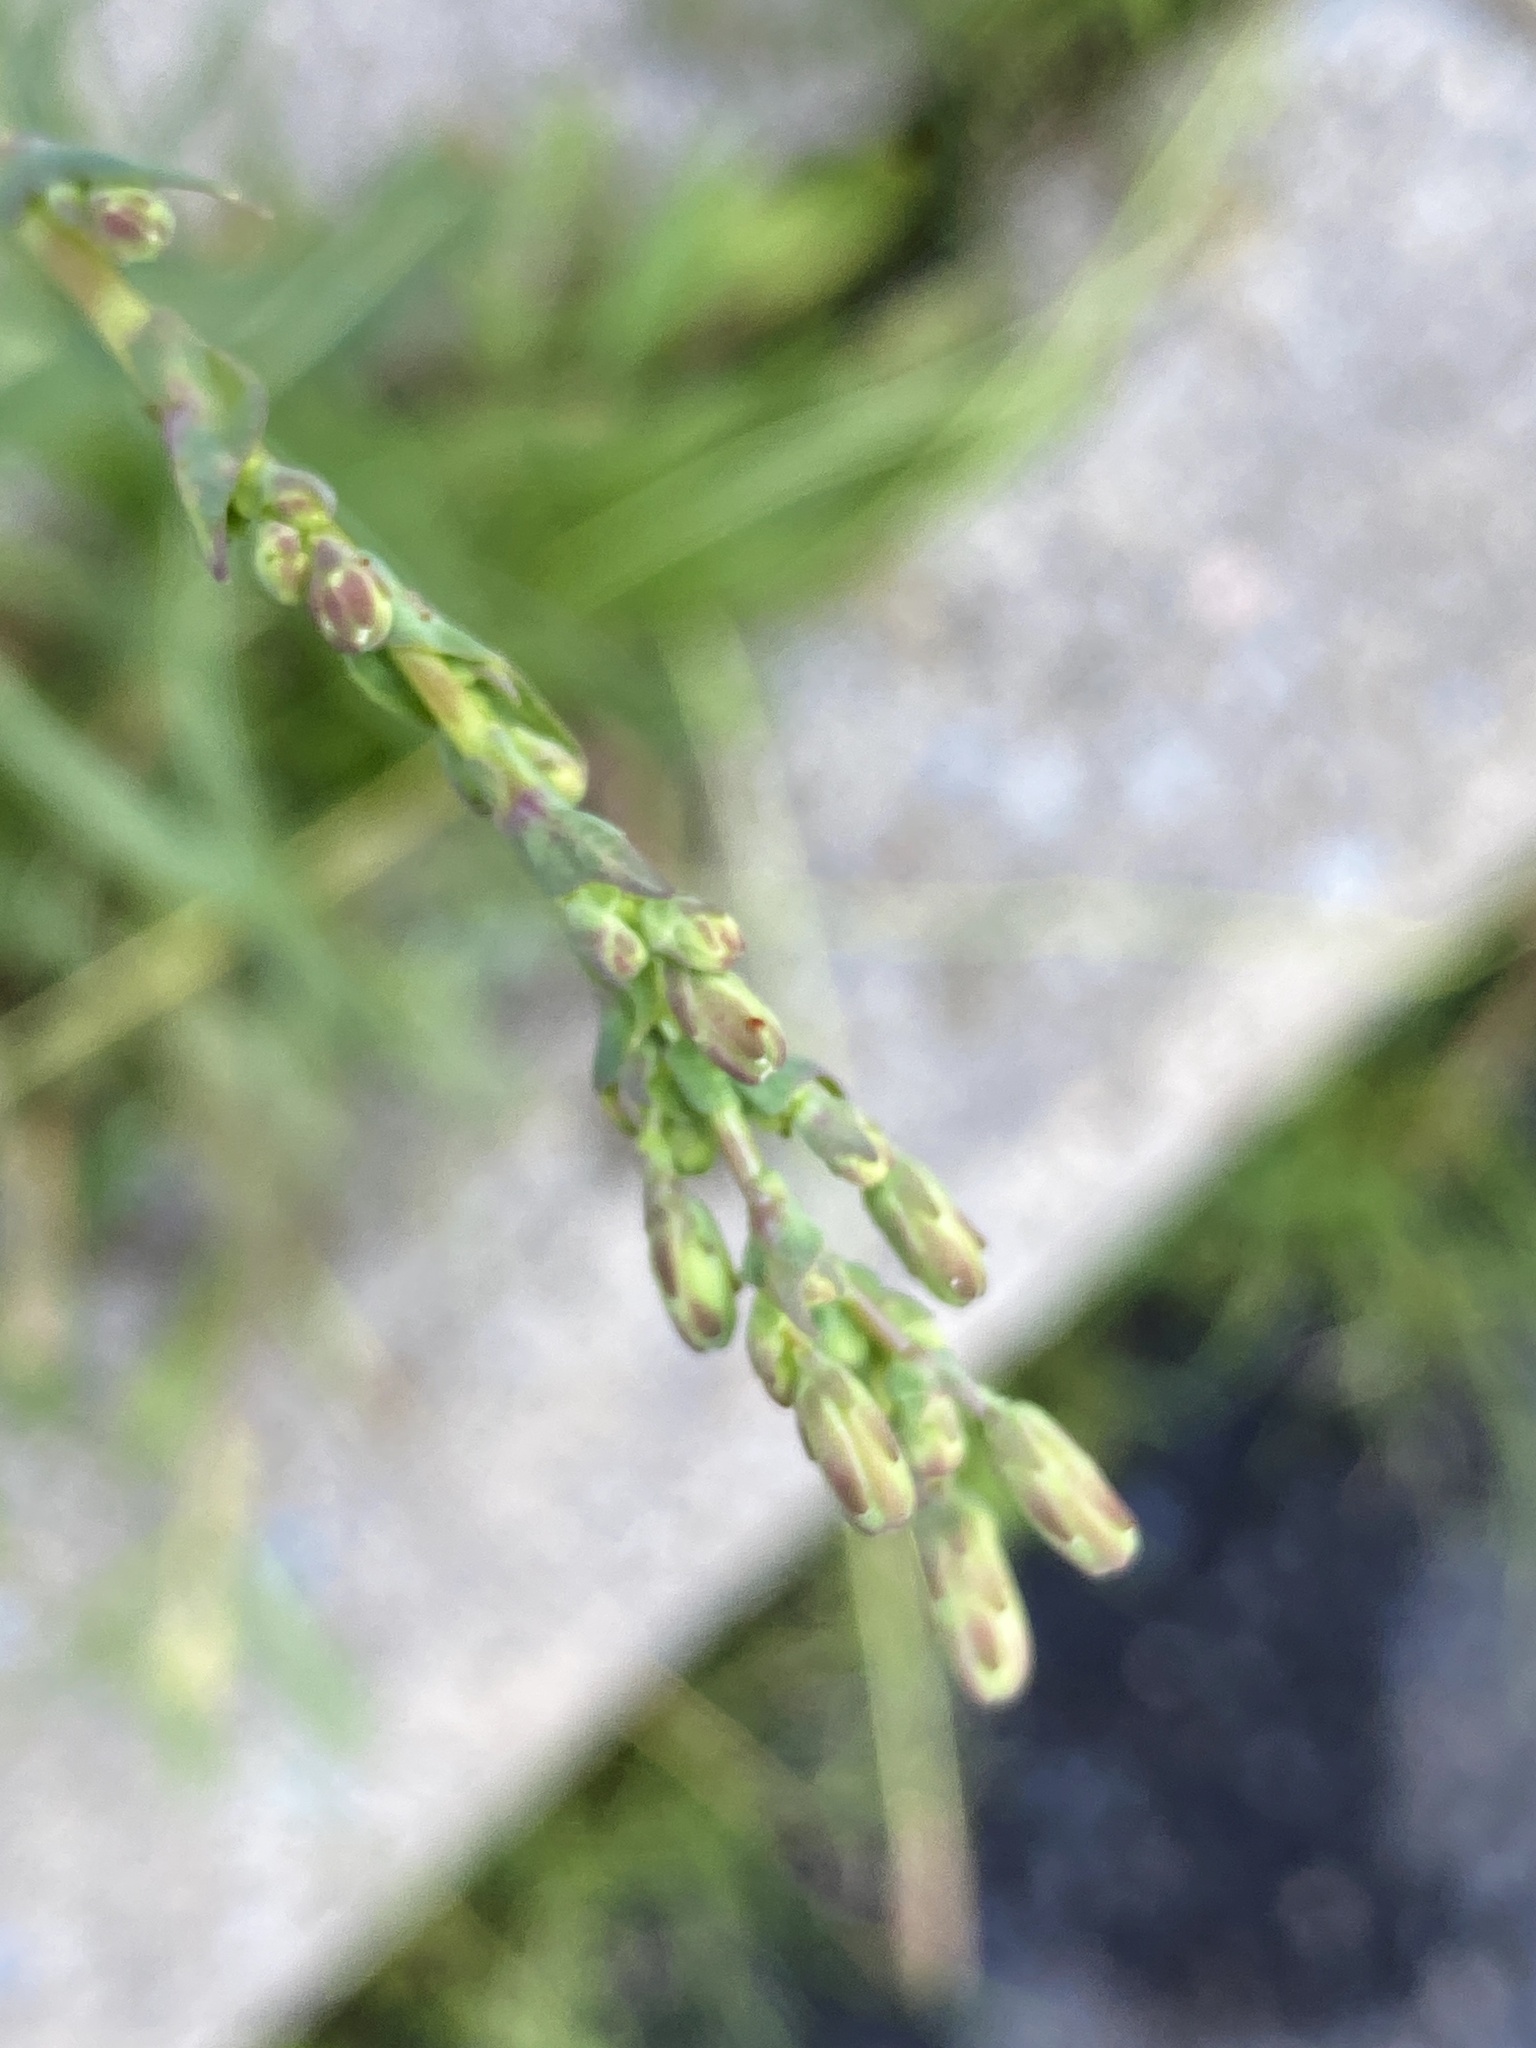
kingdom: Plantae
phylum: Tracheophyta
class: Magnoliopsida
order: Asterales
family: Asteraceae
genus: Lactuca
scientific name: Lactuca serriola
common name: Prickly lettuce
